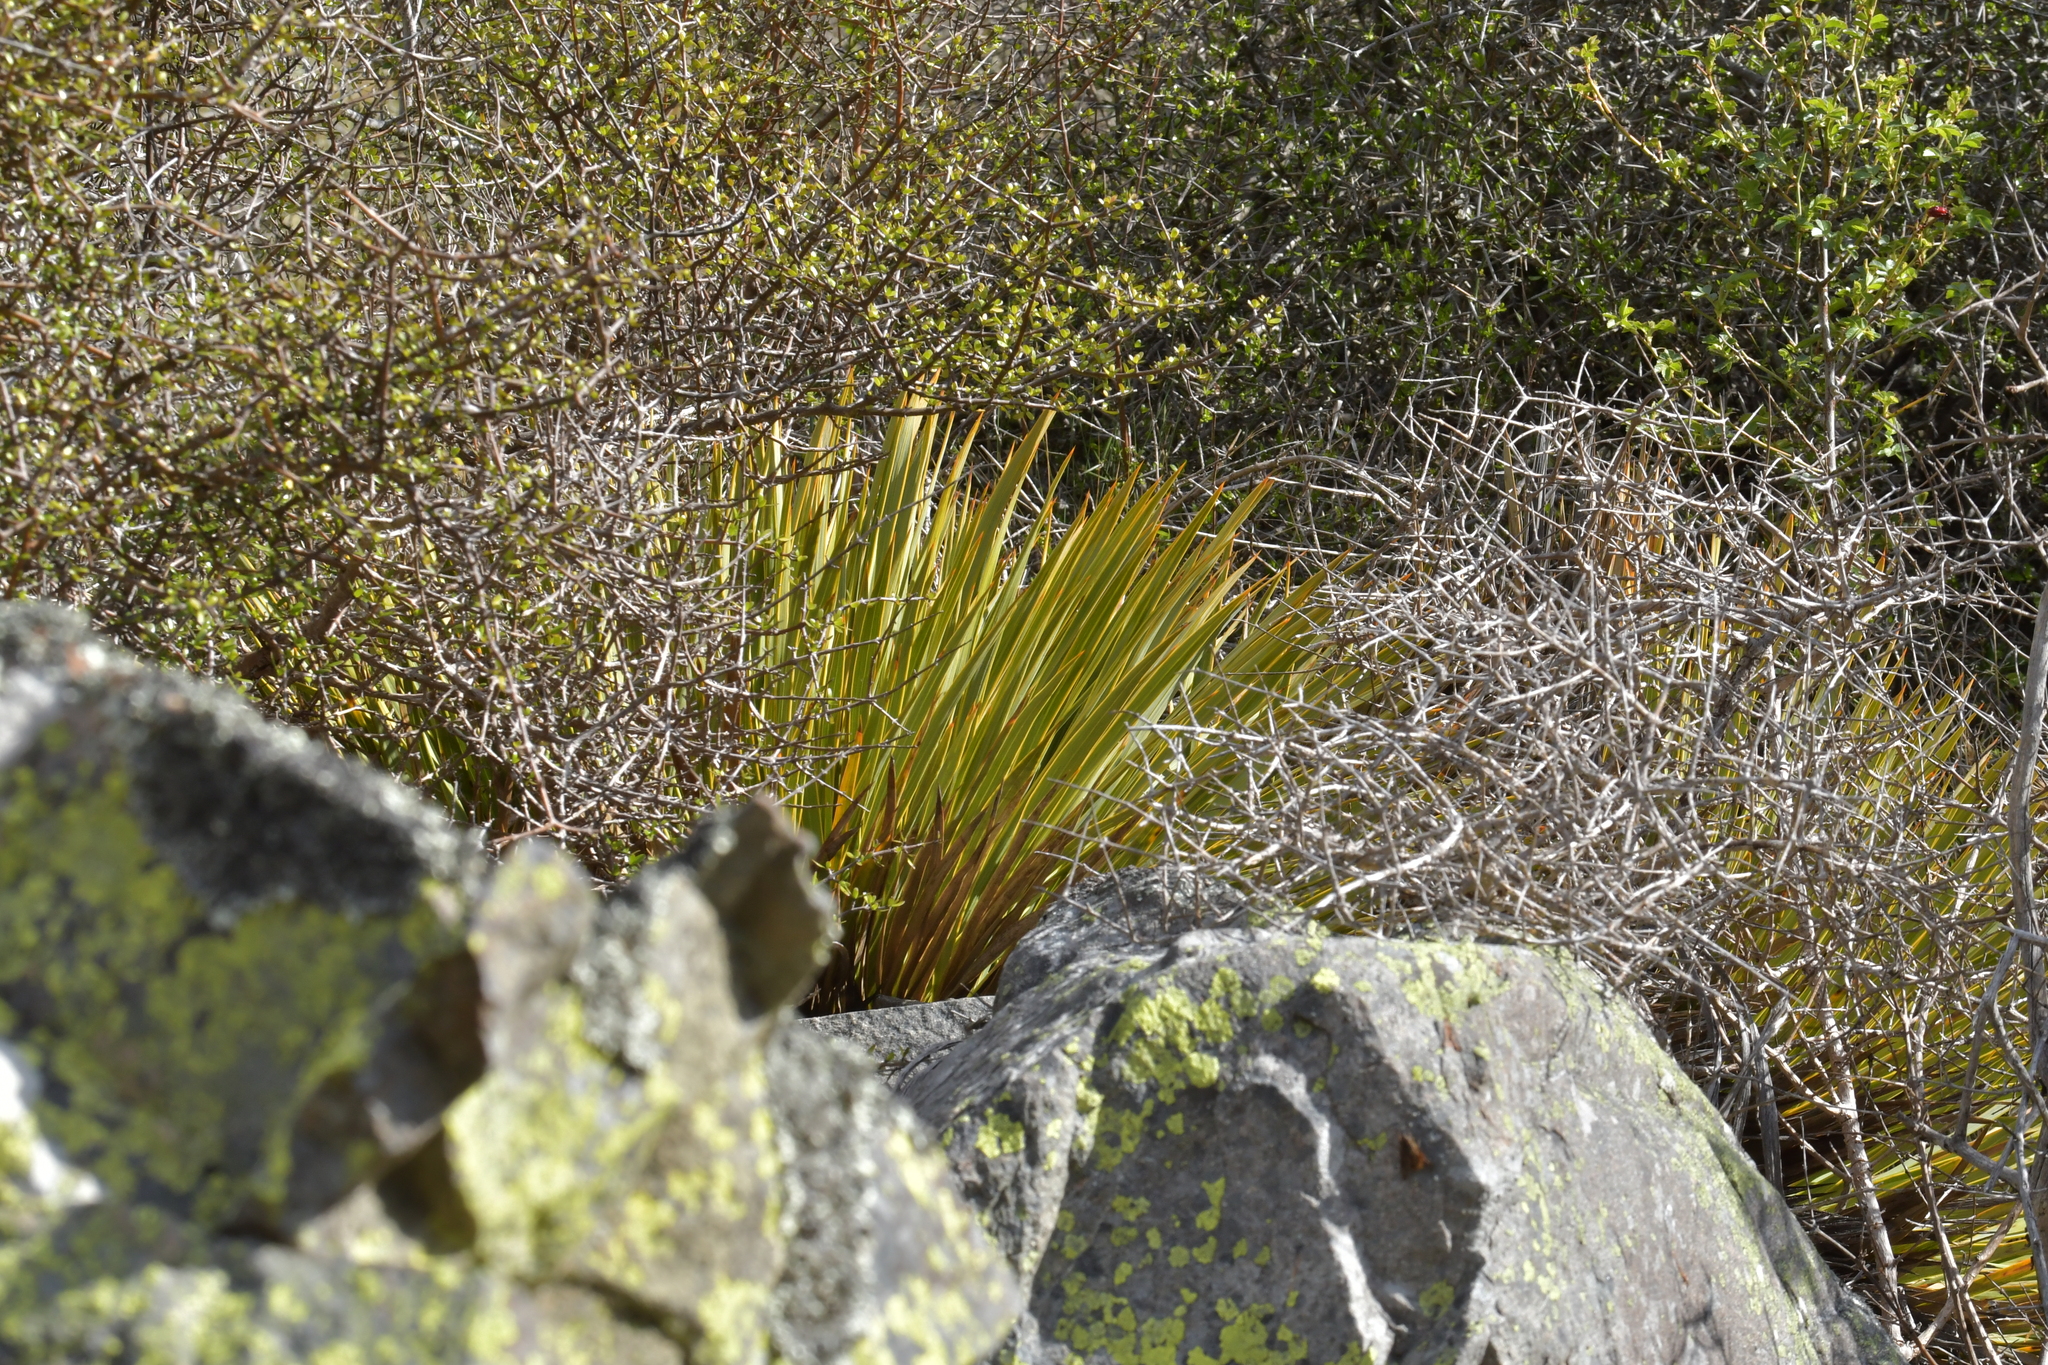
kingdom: Plantae
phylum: Tracheophyta
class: Magnoliopsida
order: Apiales
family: Apiaceae
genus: Aciphylla
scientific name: Aciphylla aurea
